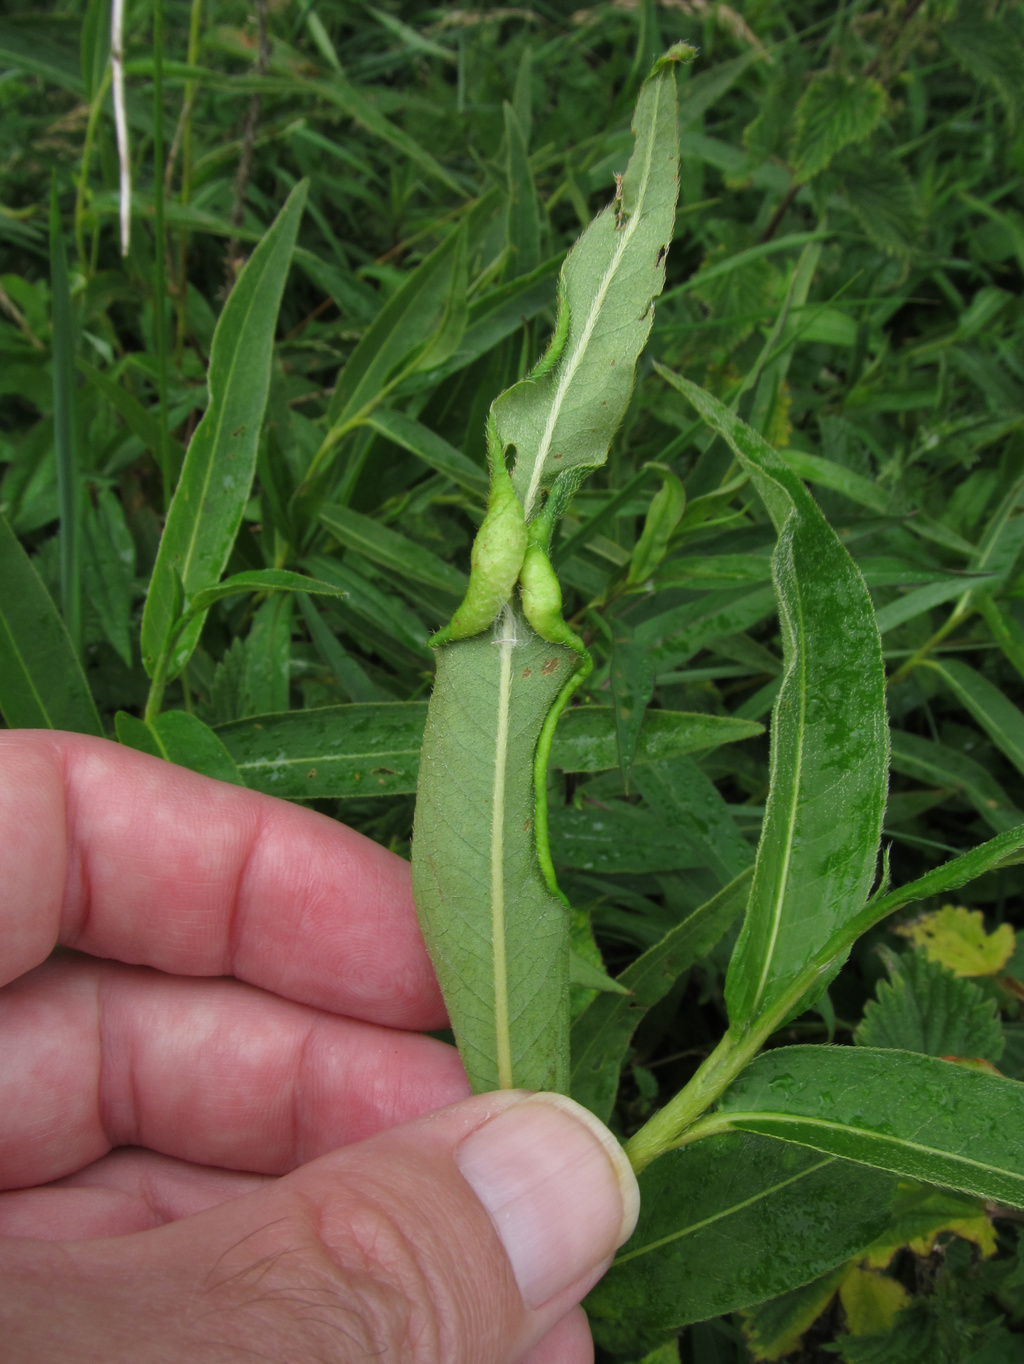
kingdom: Animalia
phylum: Arthropoda
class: Insecta
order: Diptera
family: Cecidomyiidae
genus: Wachtliella
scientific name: Wachtliella persicariae
